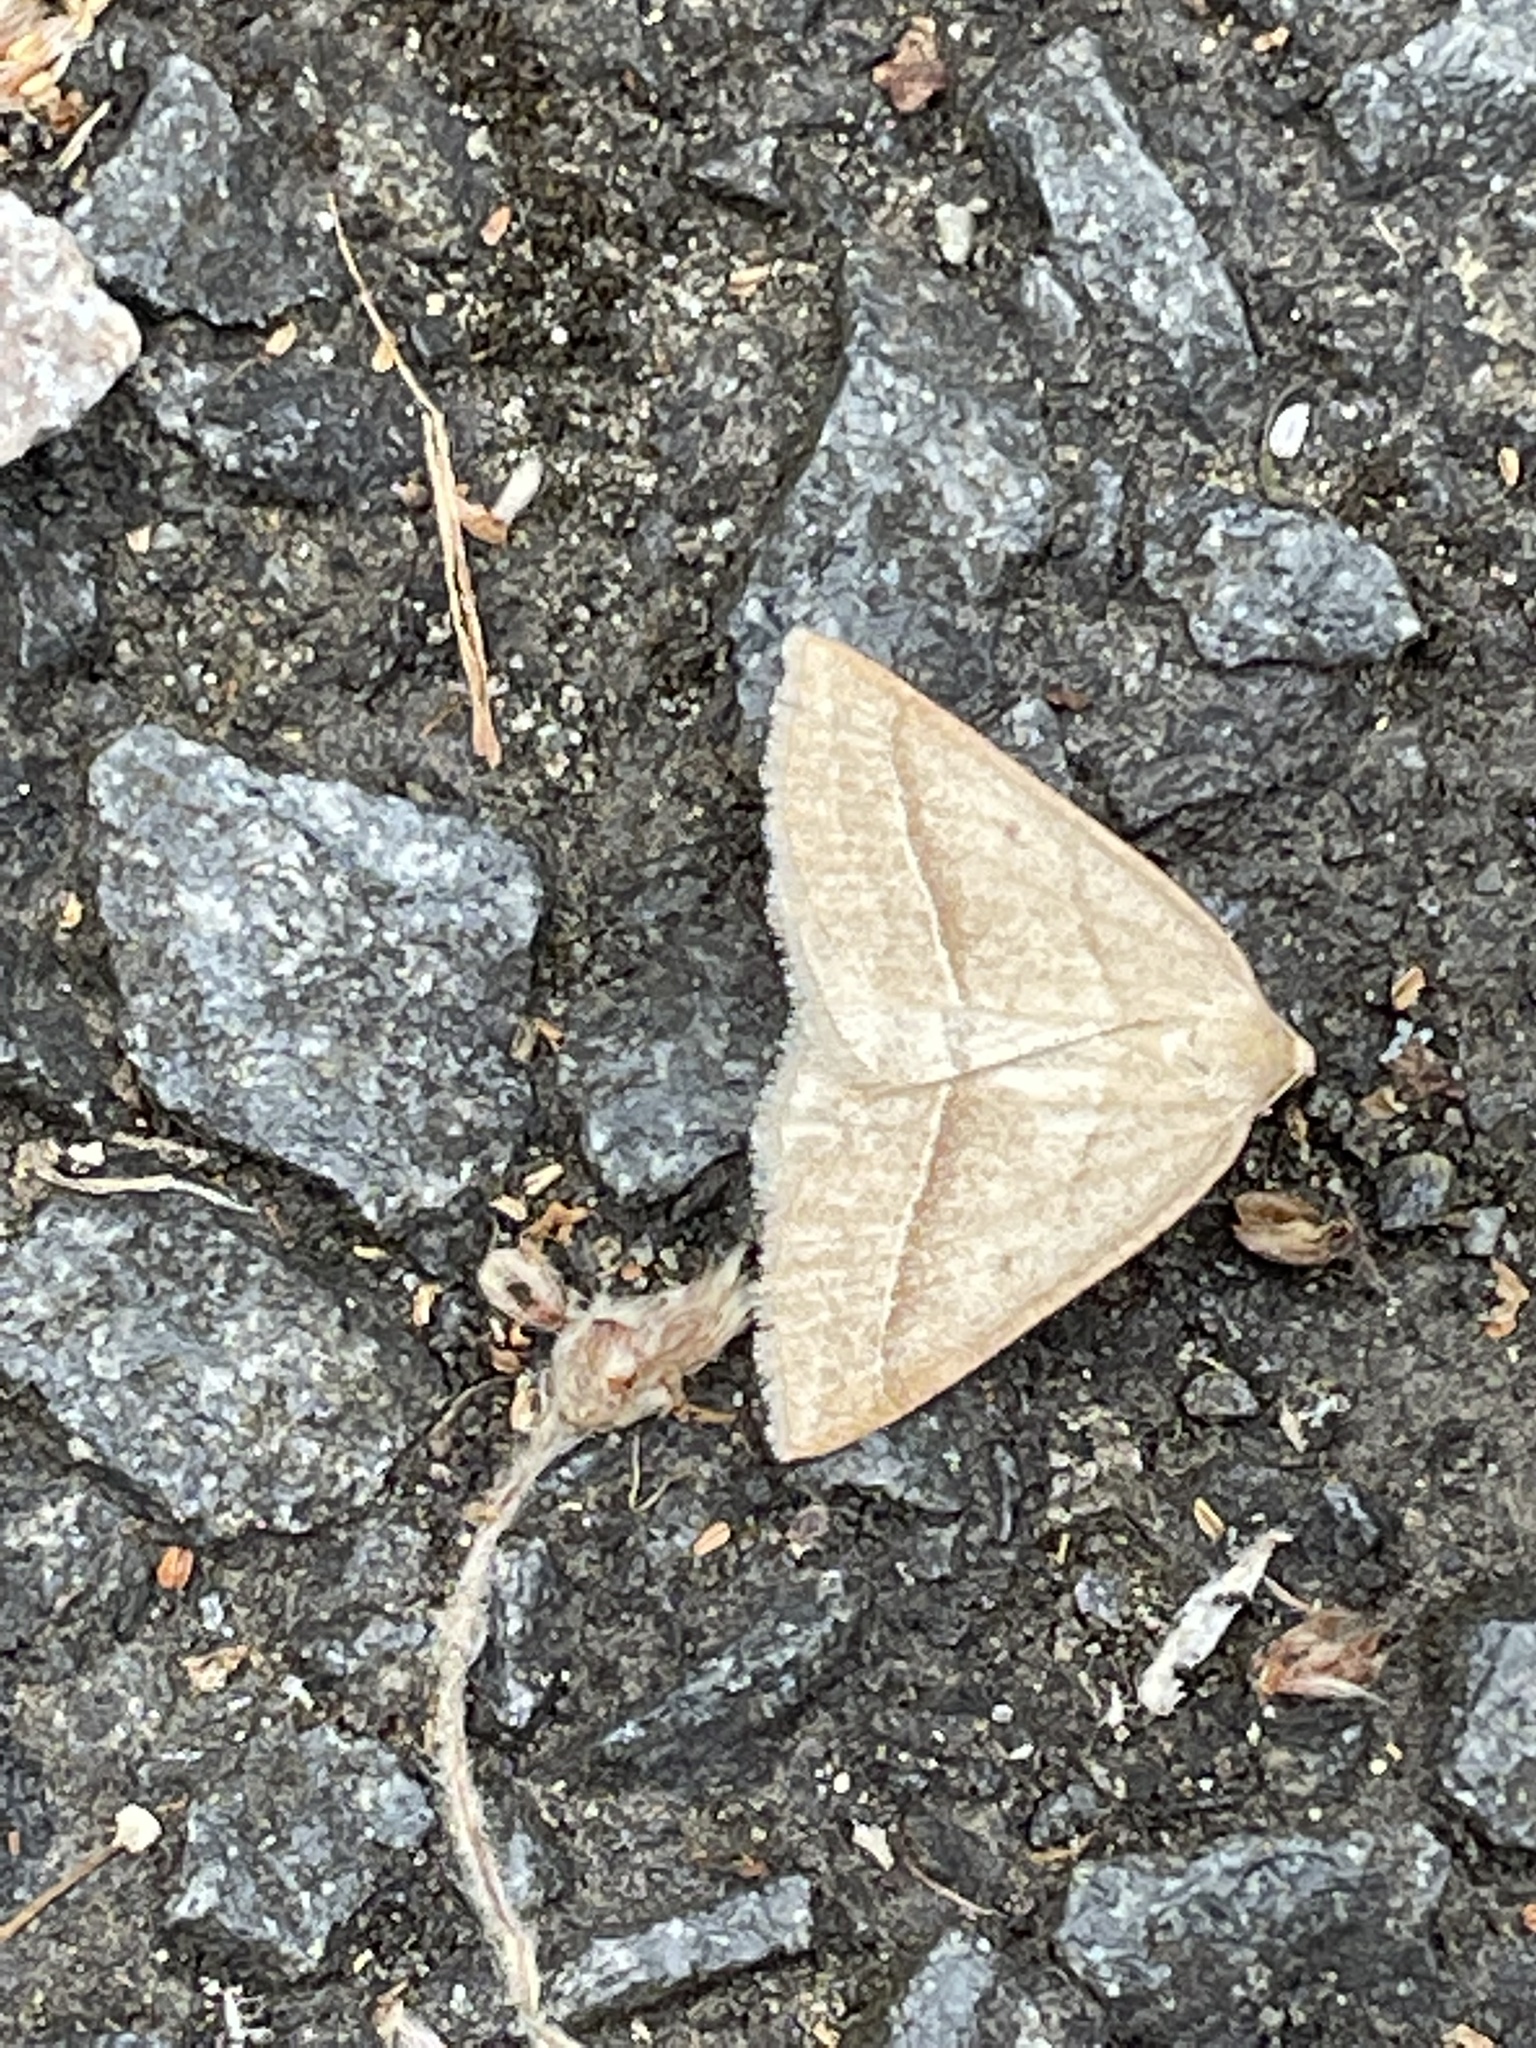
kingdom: Animalia
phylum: Arthropoda
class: Insecta
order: Lepidoptera
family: Pterophoridae
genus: Pterophorus
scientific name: Pterophorus Petrophora chlorosata
